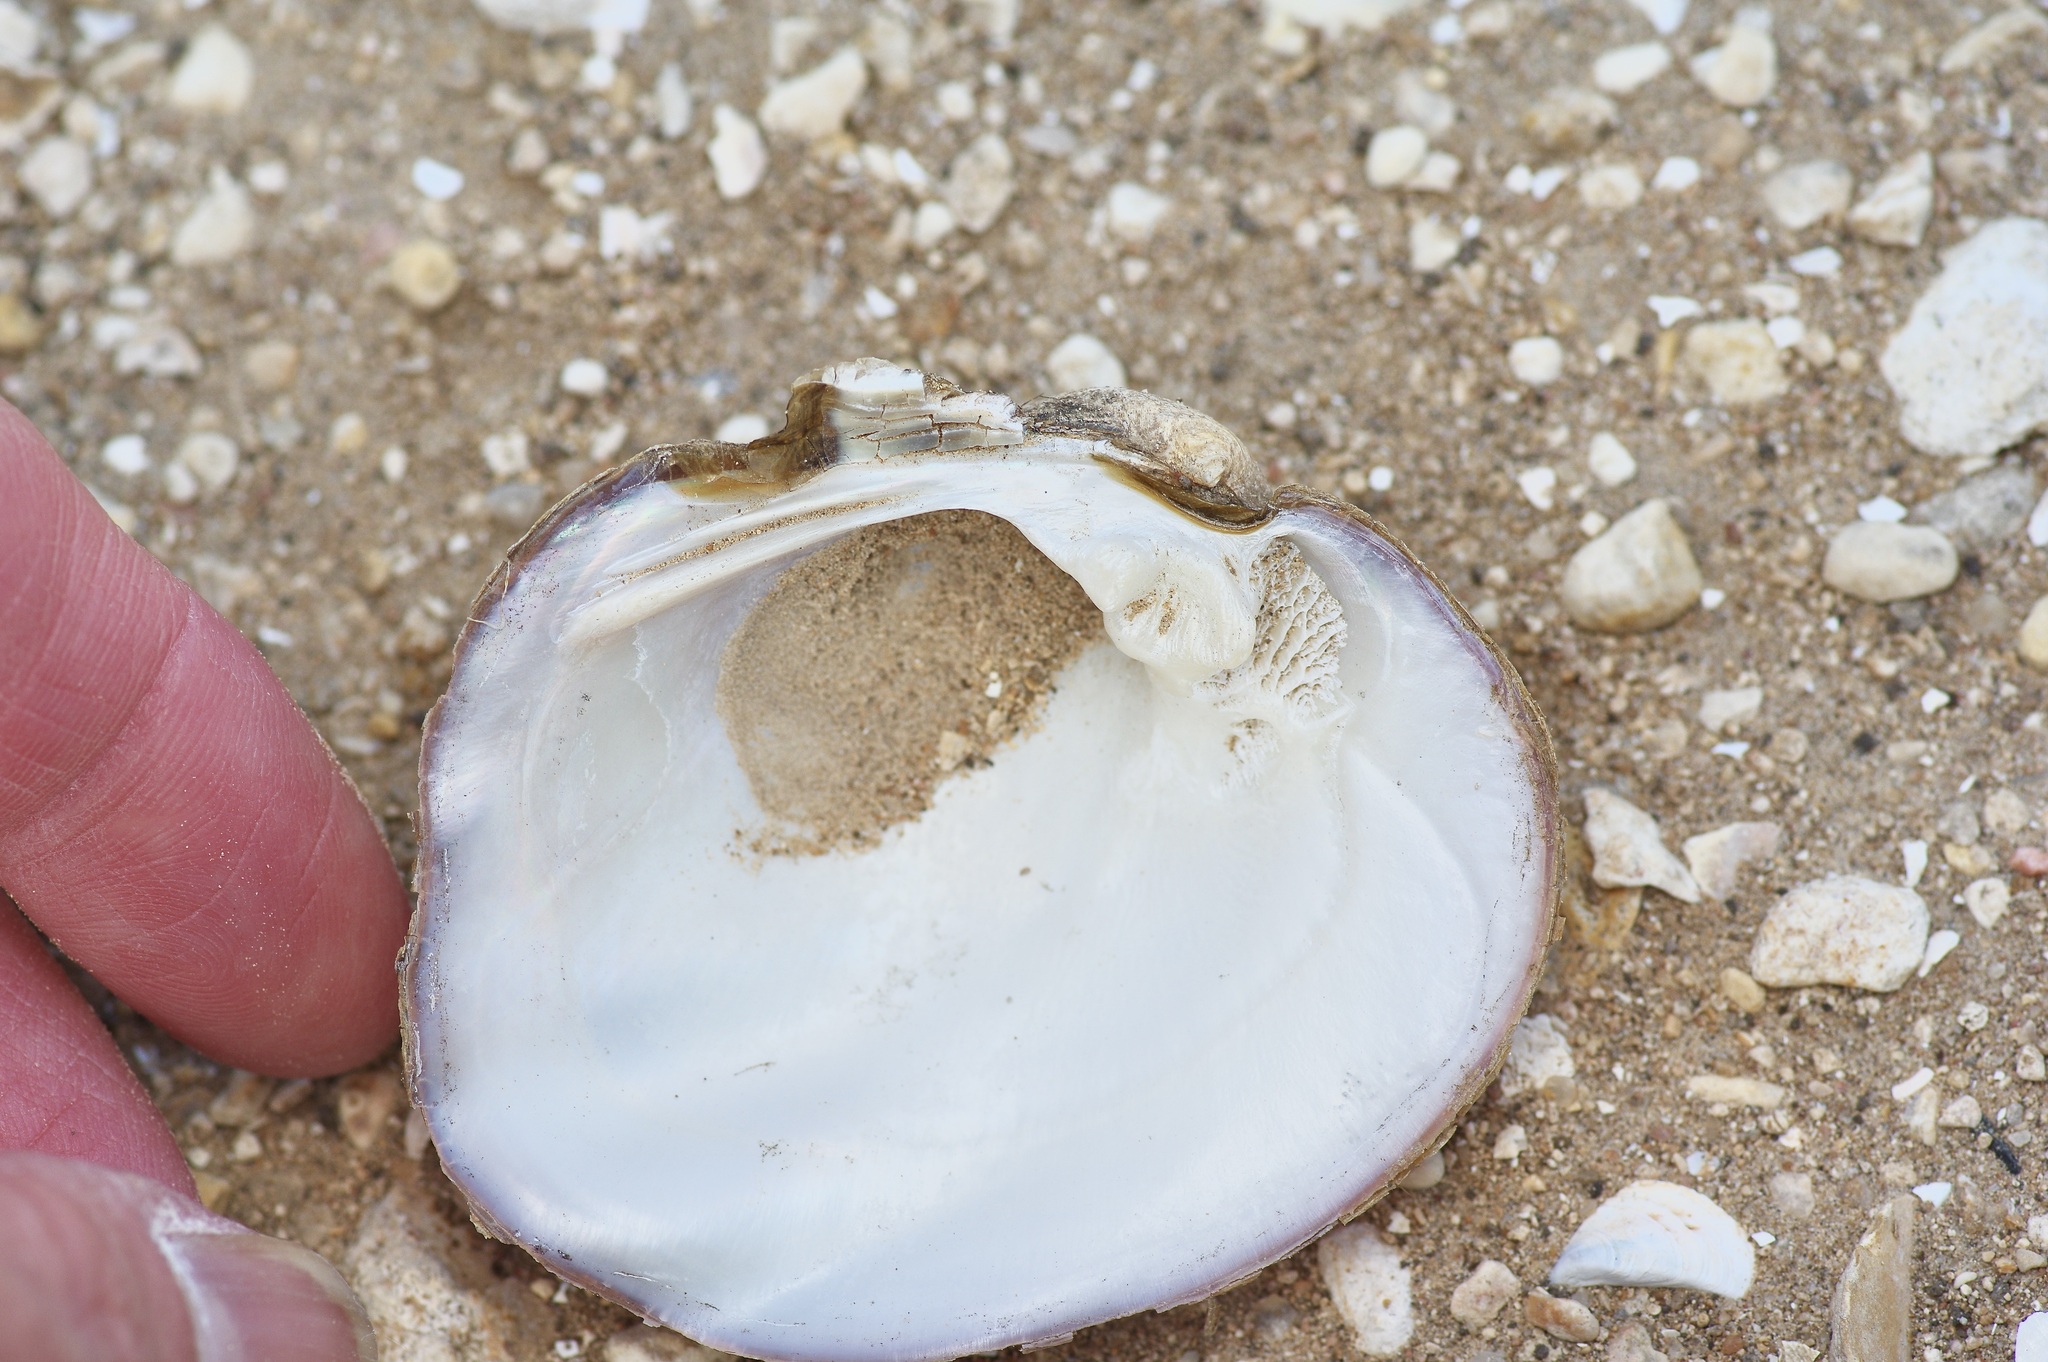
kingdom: Animalia
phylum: Mollusca
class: Bivalvia
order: Unionida
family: Unionidae
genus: Amblema
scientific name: Amblema plicata
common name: Threeridge
